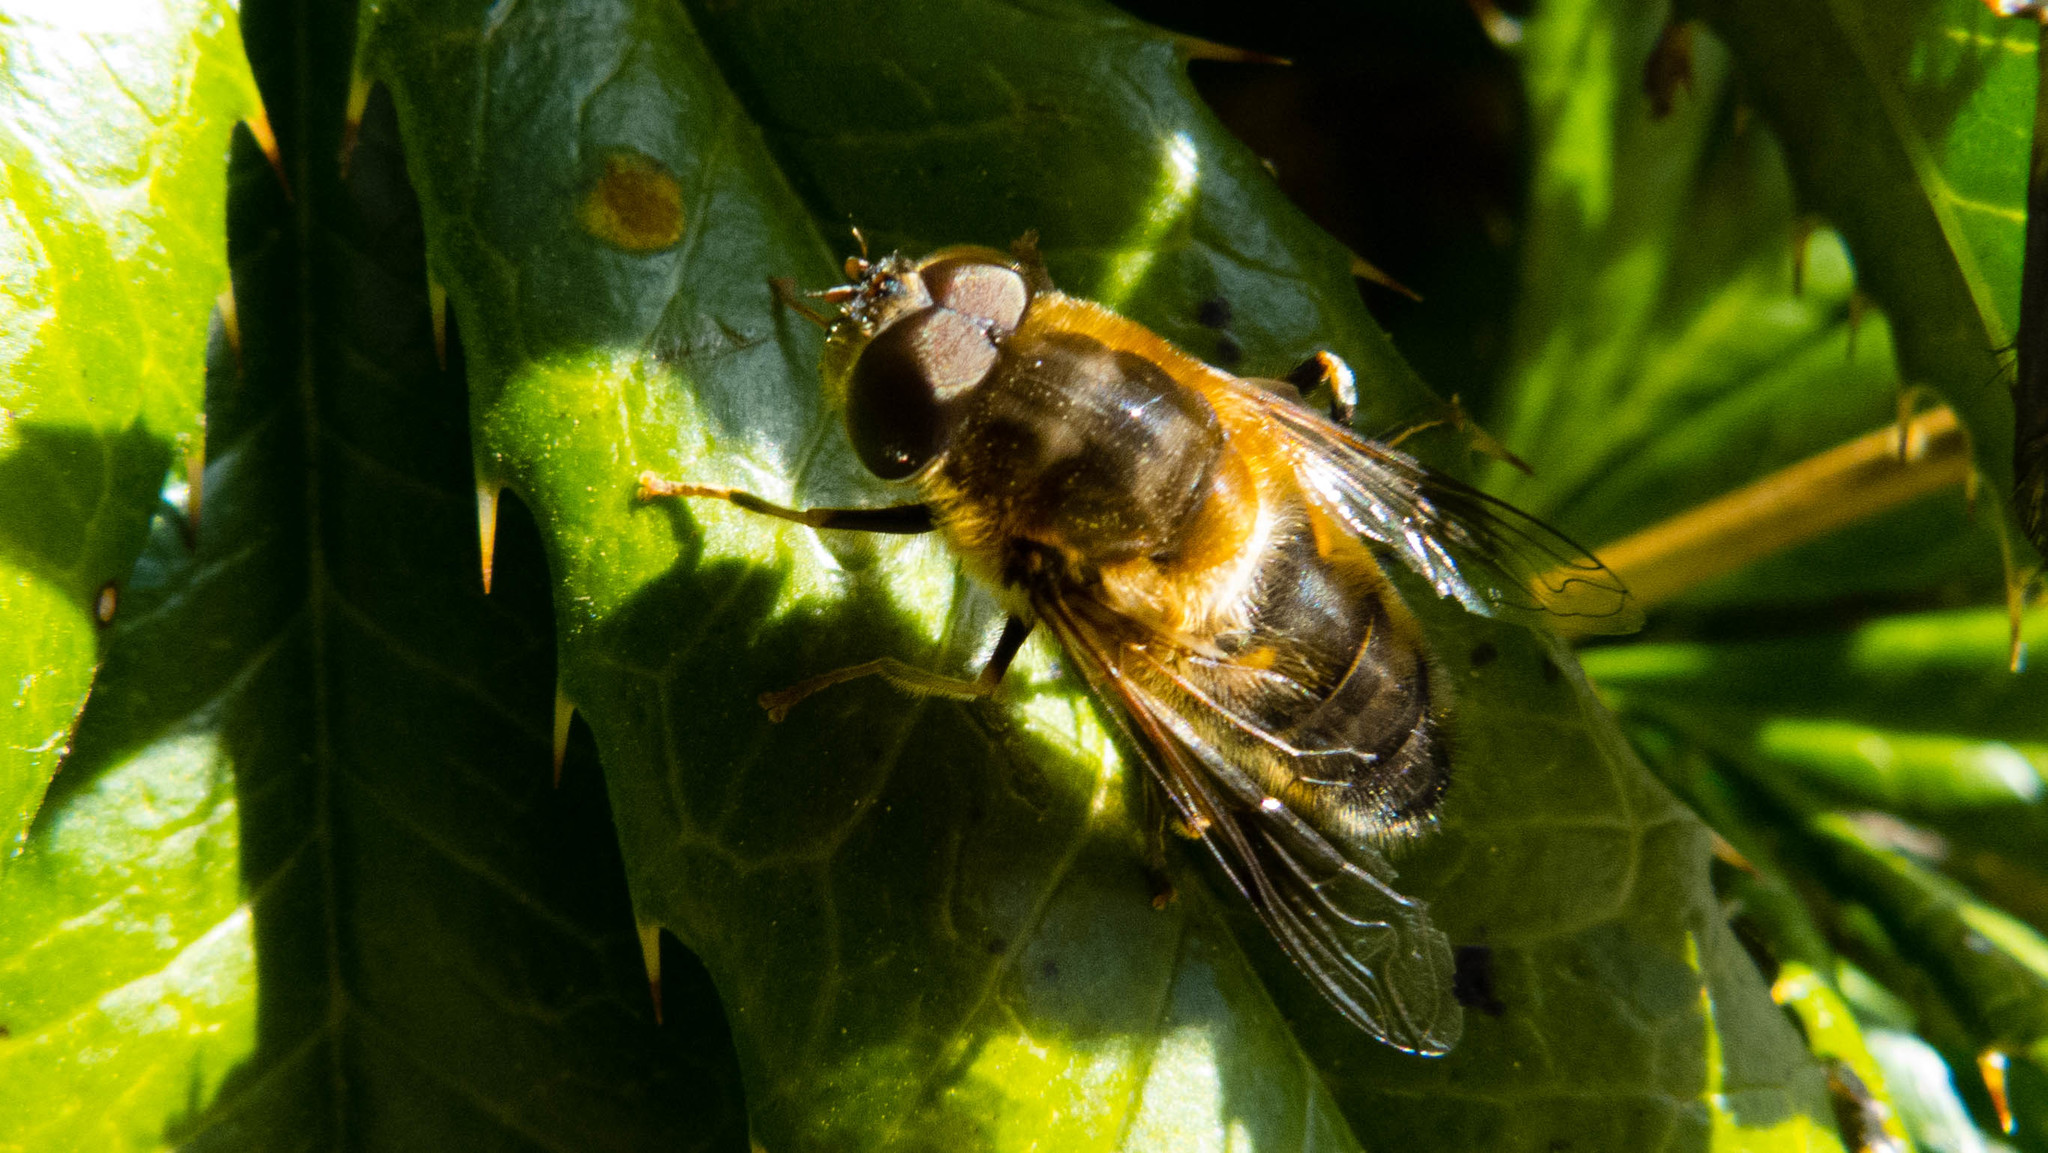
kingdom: Animalia
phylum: Arthropoda
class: Insecta
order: Diptera
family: Syrphidae
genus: Eristalis
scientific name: Eristalis pertinax
